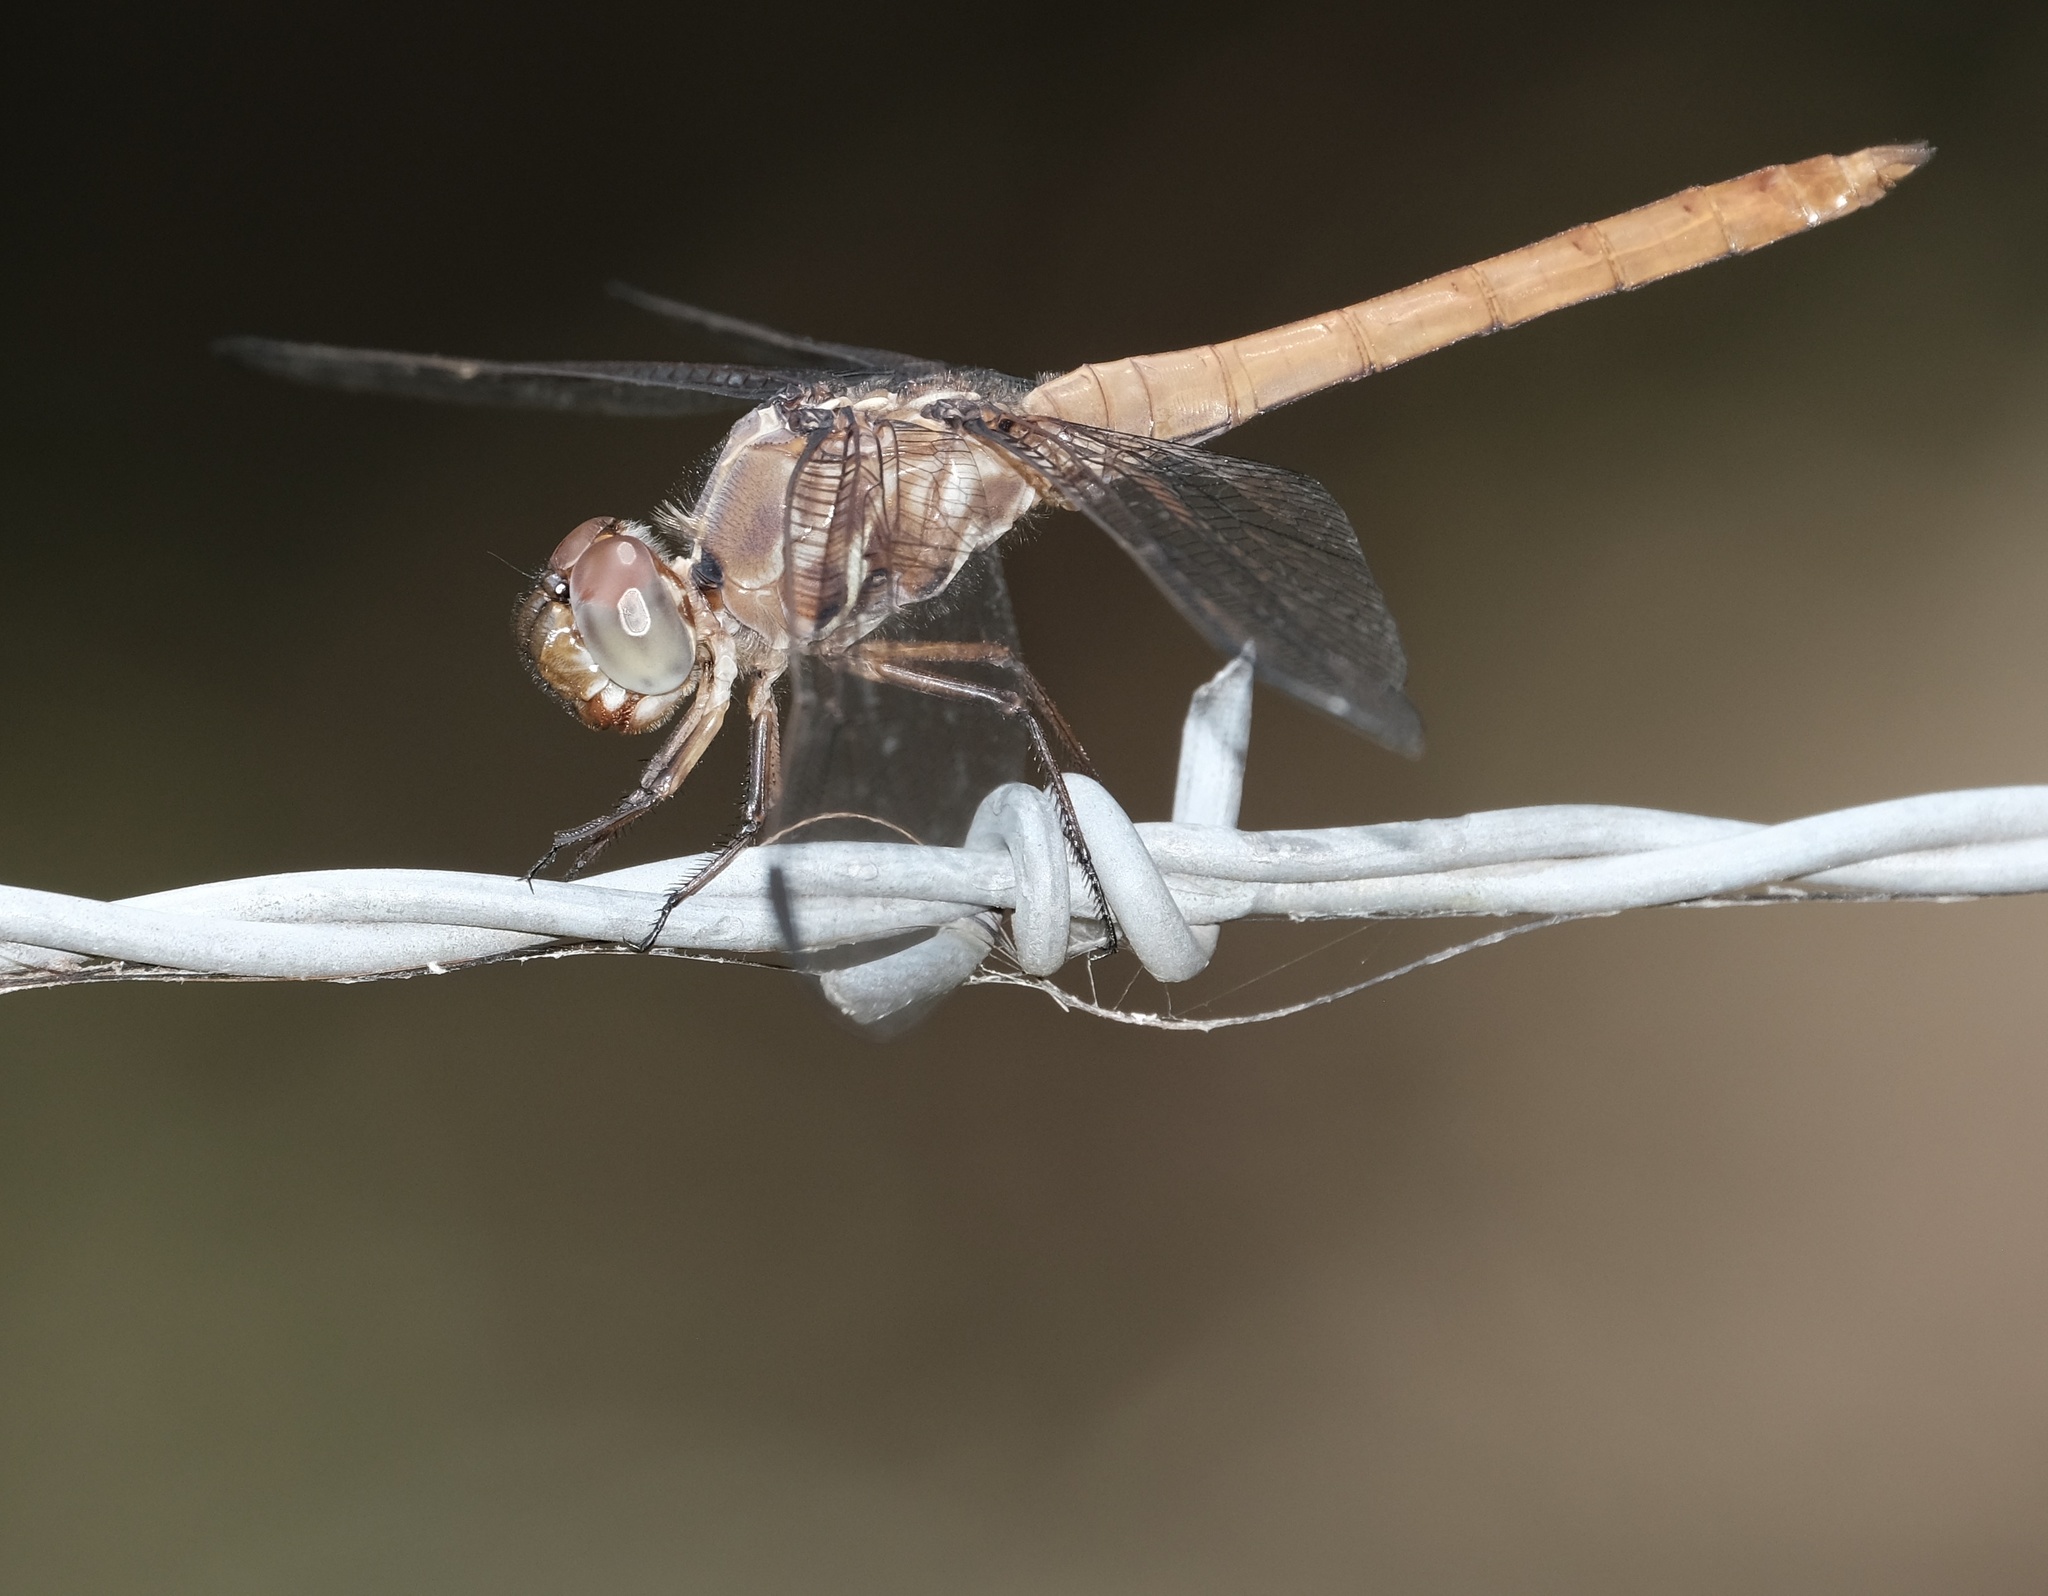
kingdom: Animalia
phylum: Arthropoda
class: Insecta
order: Odonata
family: Libellulidae
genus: Orthemis
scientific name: Orthemis ferruginea
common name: Roseate skimmer
